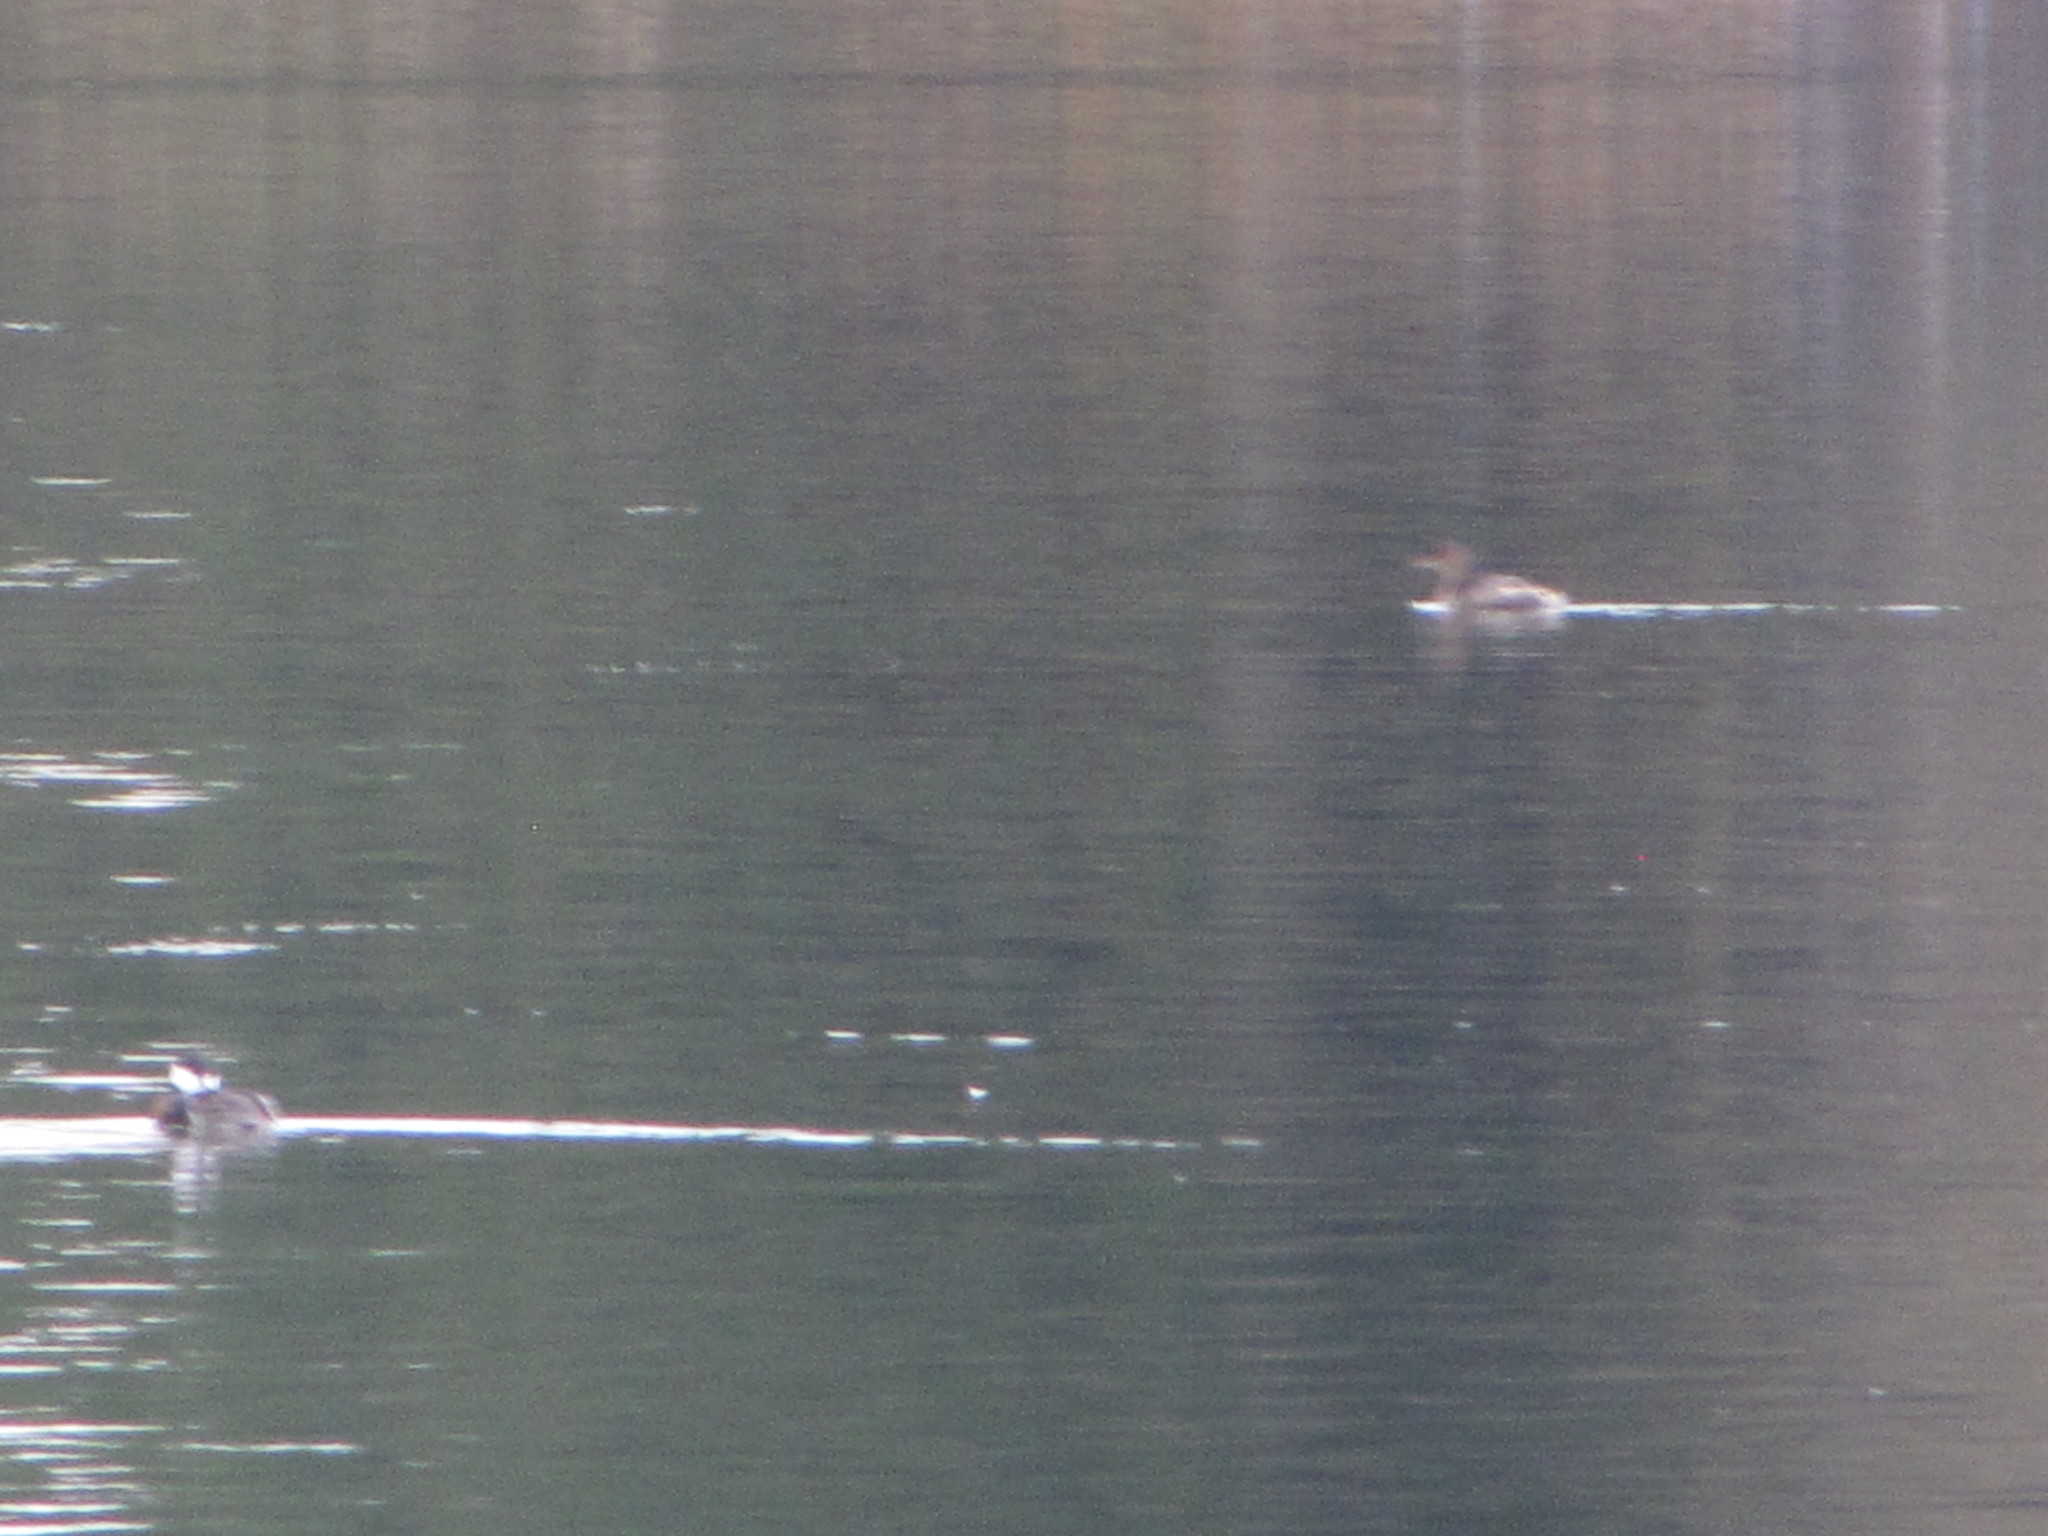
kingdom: Animalia
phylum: Chordata
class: Aves
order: Anseriformes
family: Anatidae
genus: Lophodytes
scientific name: Lophodytes cucullatus
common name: Hooded merganser
